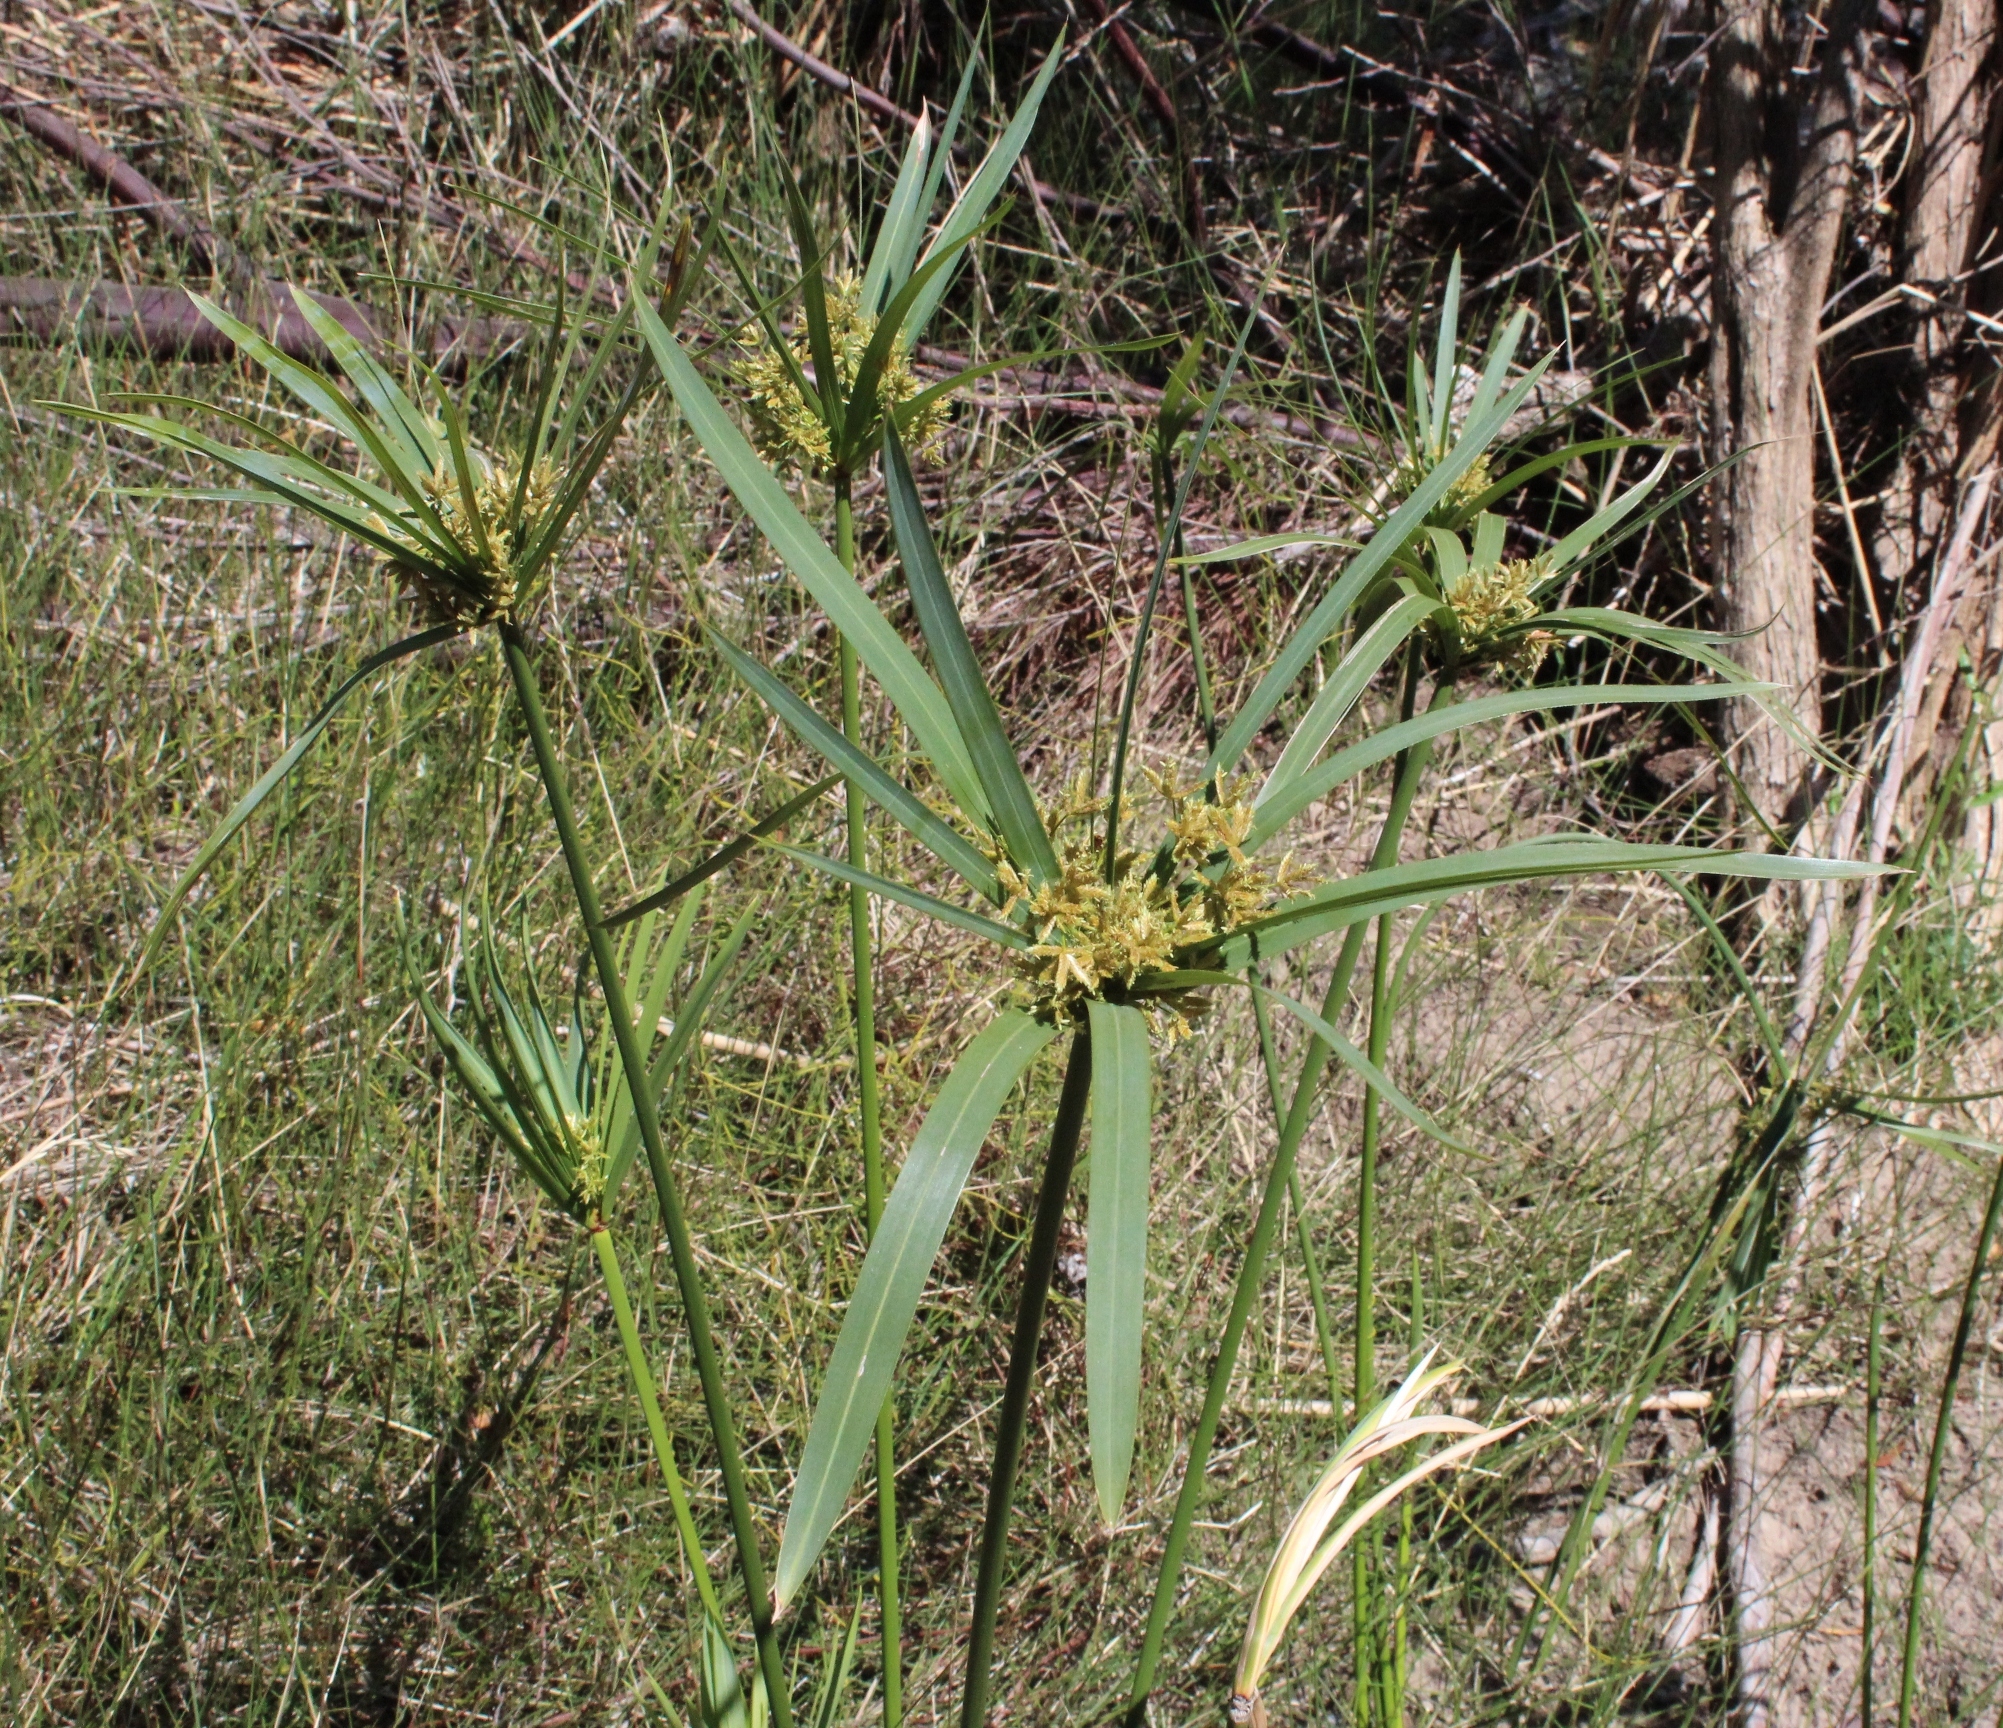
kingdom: Plantae
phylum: Tracheophyta
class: Liliopsida
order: Poales
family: Cyperaceae
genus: Cyperus
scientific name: Cyperus textilis
